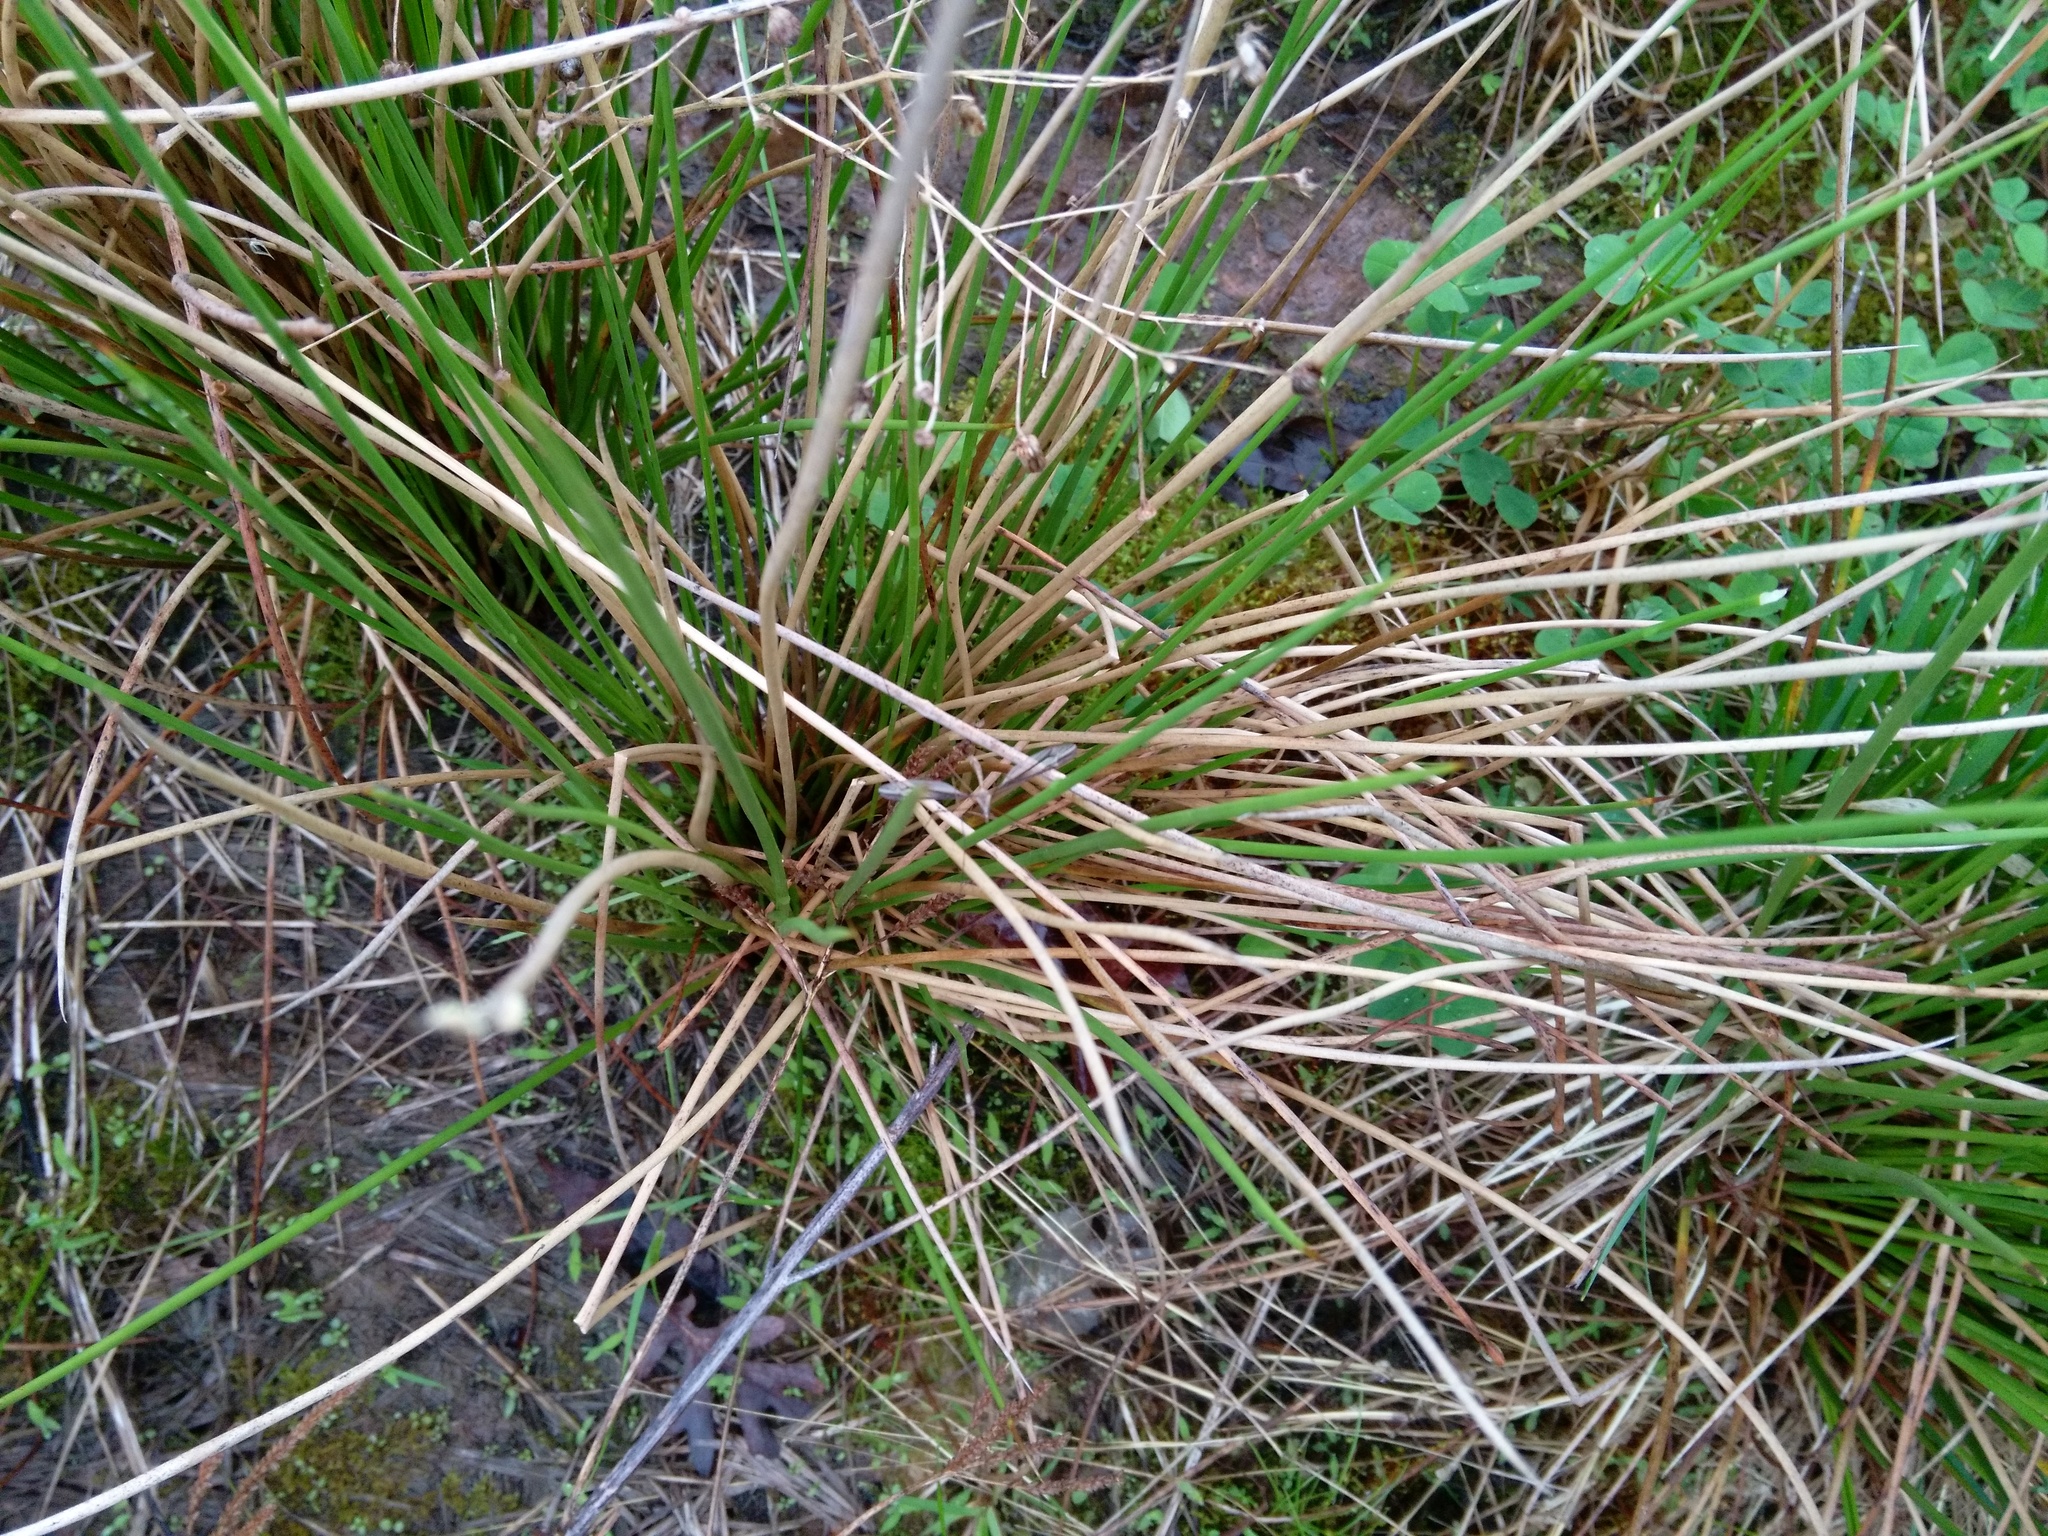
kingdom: Plantae
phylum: Tracheophyta
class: Liliopsida
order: Poales
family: Juncaceae
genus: Juncus
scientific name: Juncus effusus
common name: Soft rush
